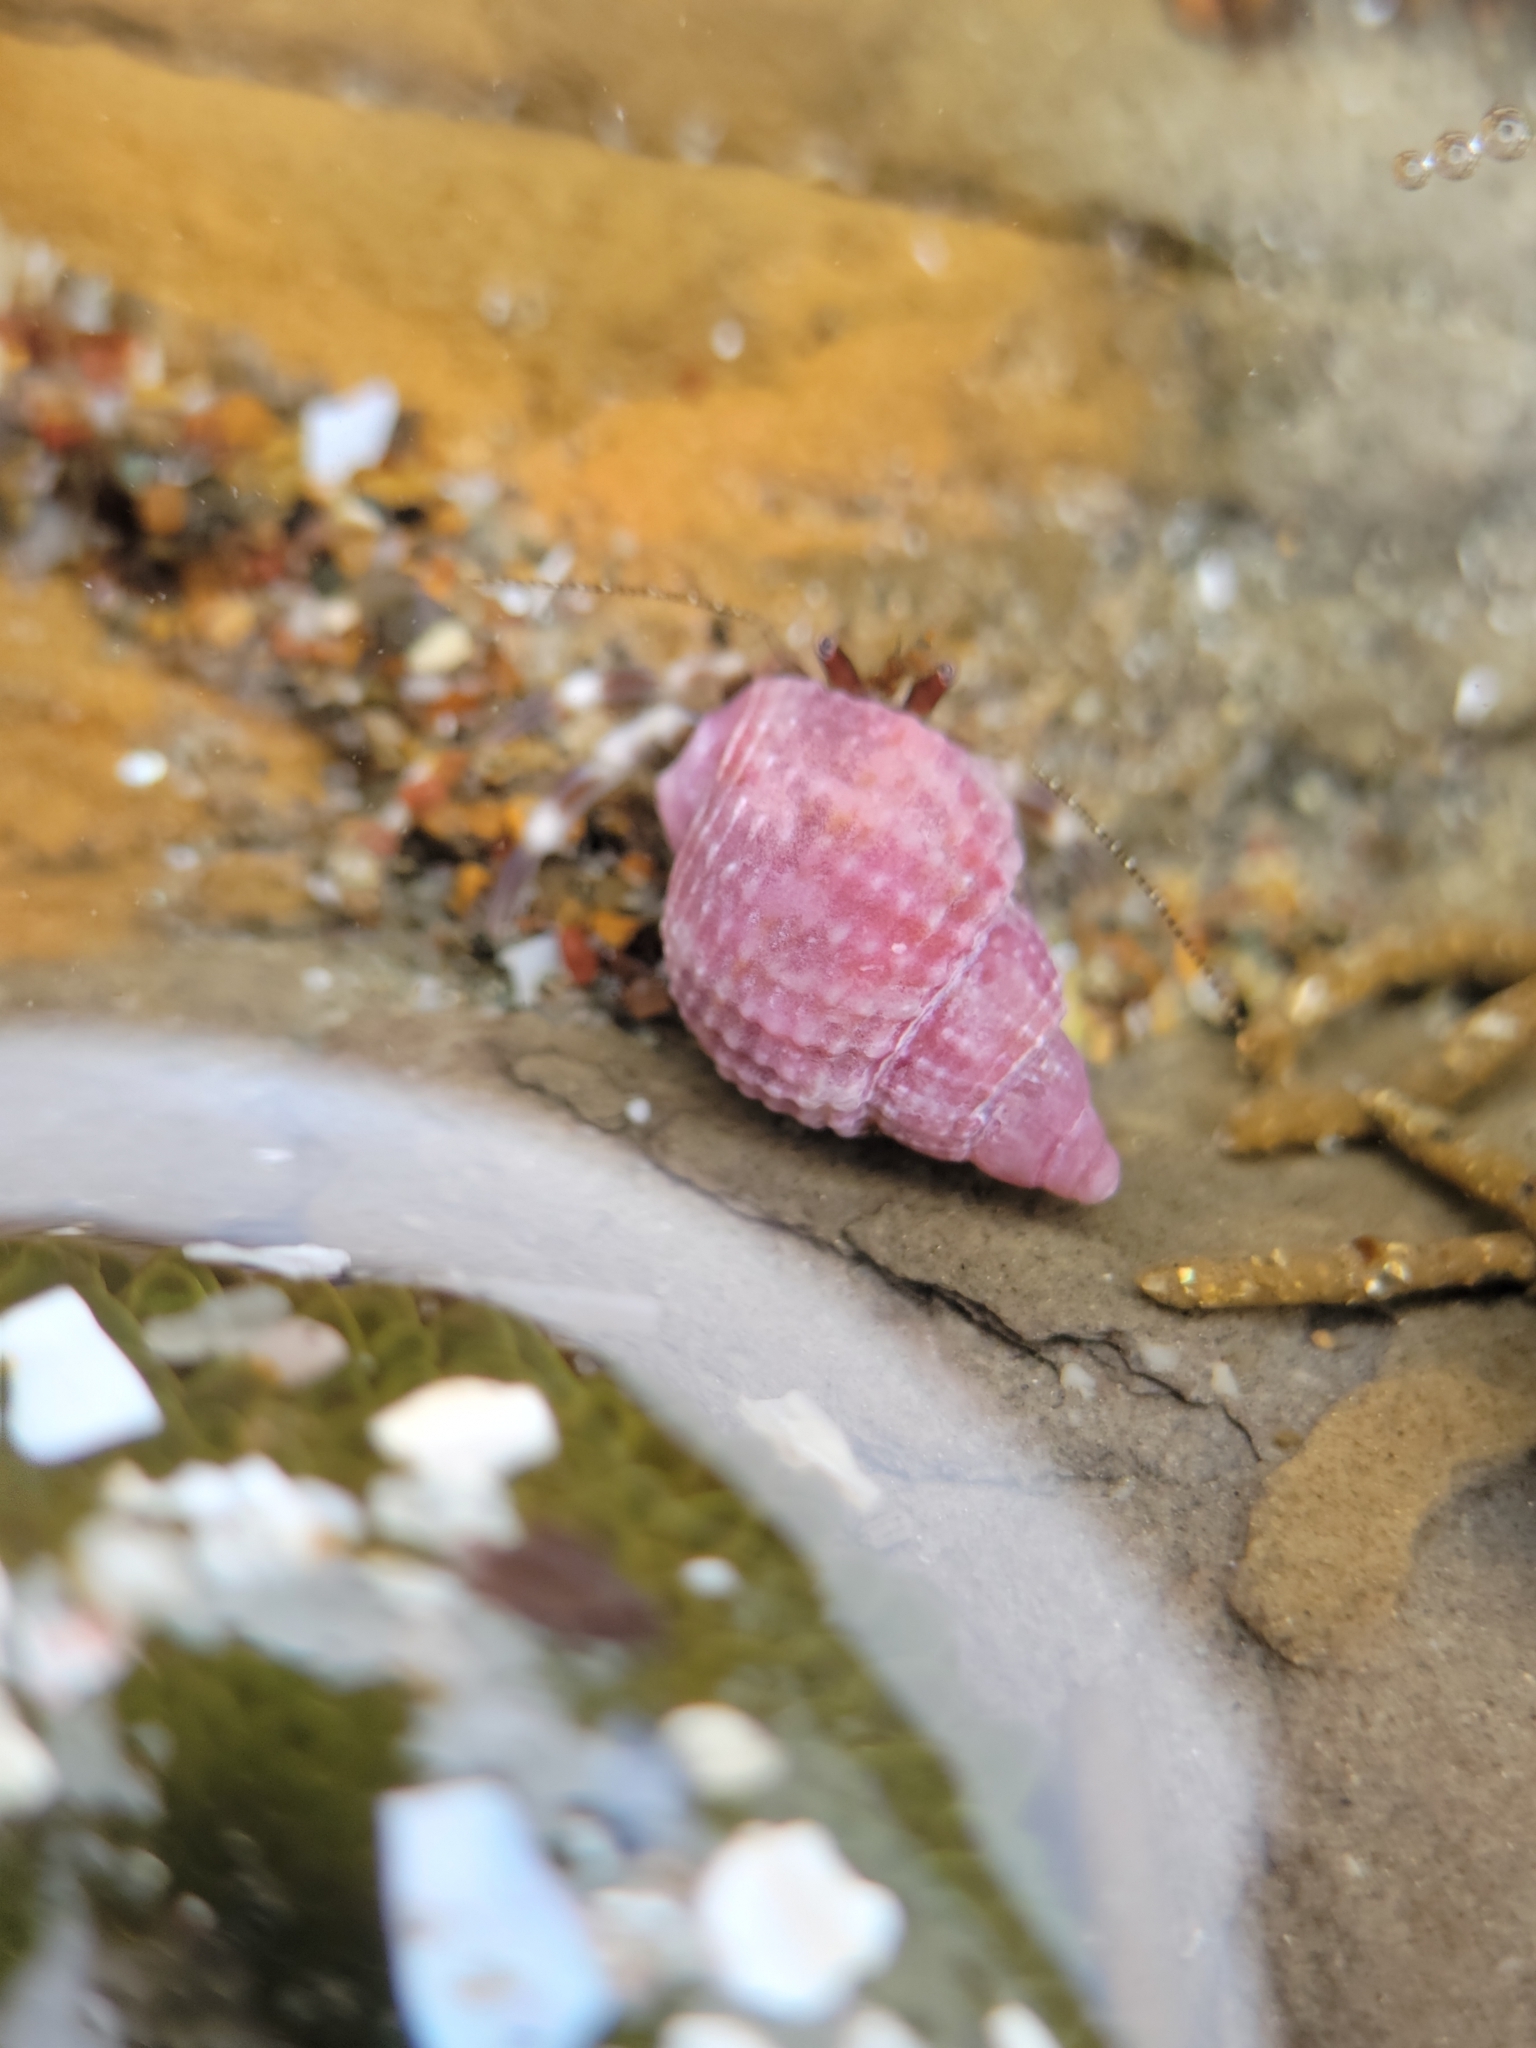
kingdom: Animalia
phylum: Mollusca
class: Gastropoda
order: Neogastropoda
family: Nassariidae
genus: Caesia
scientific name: Caesia perpinguis
